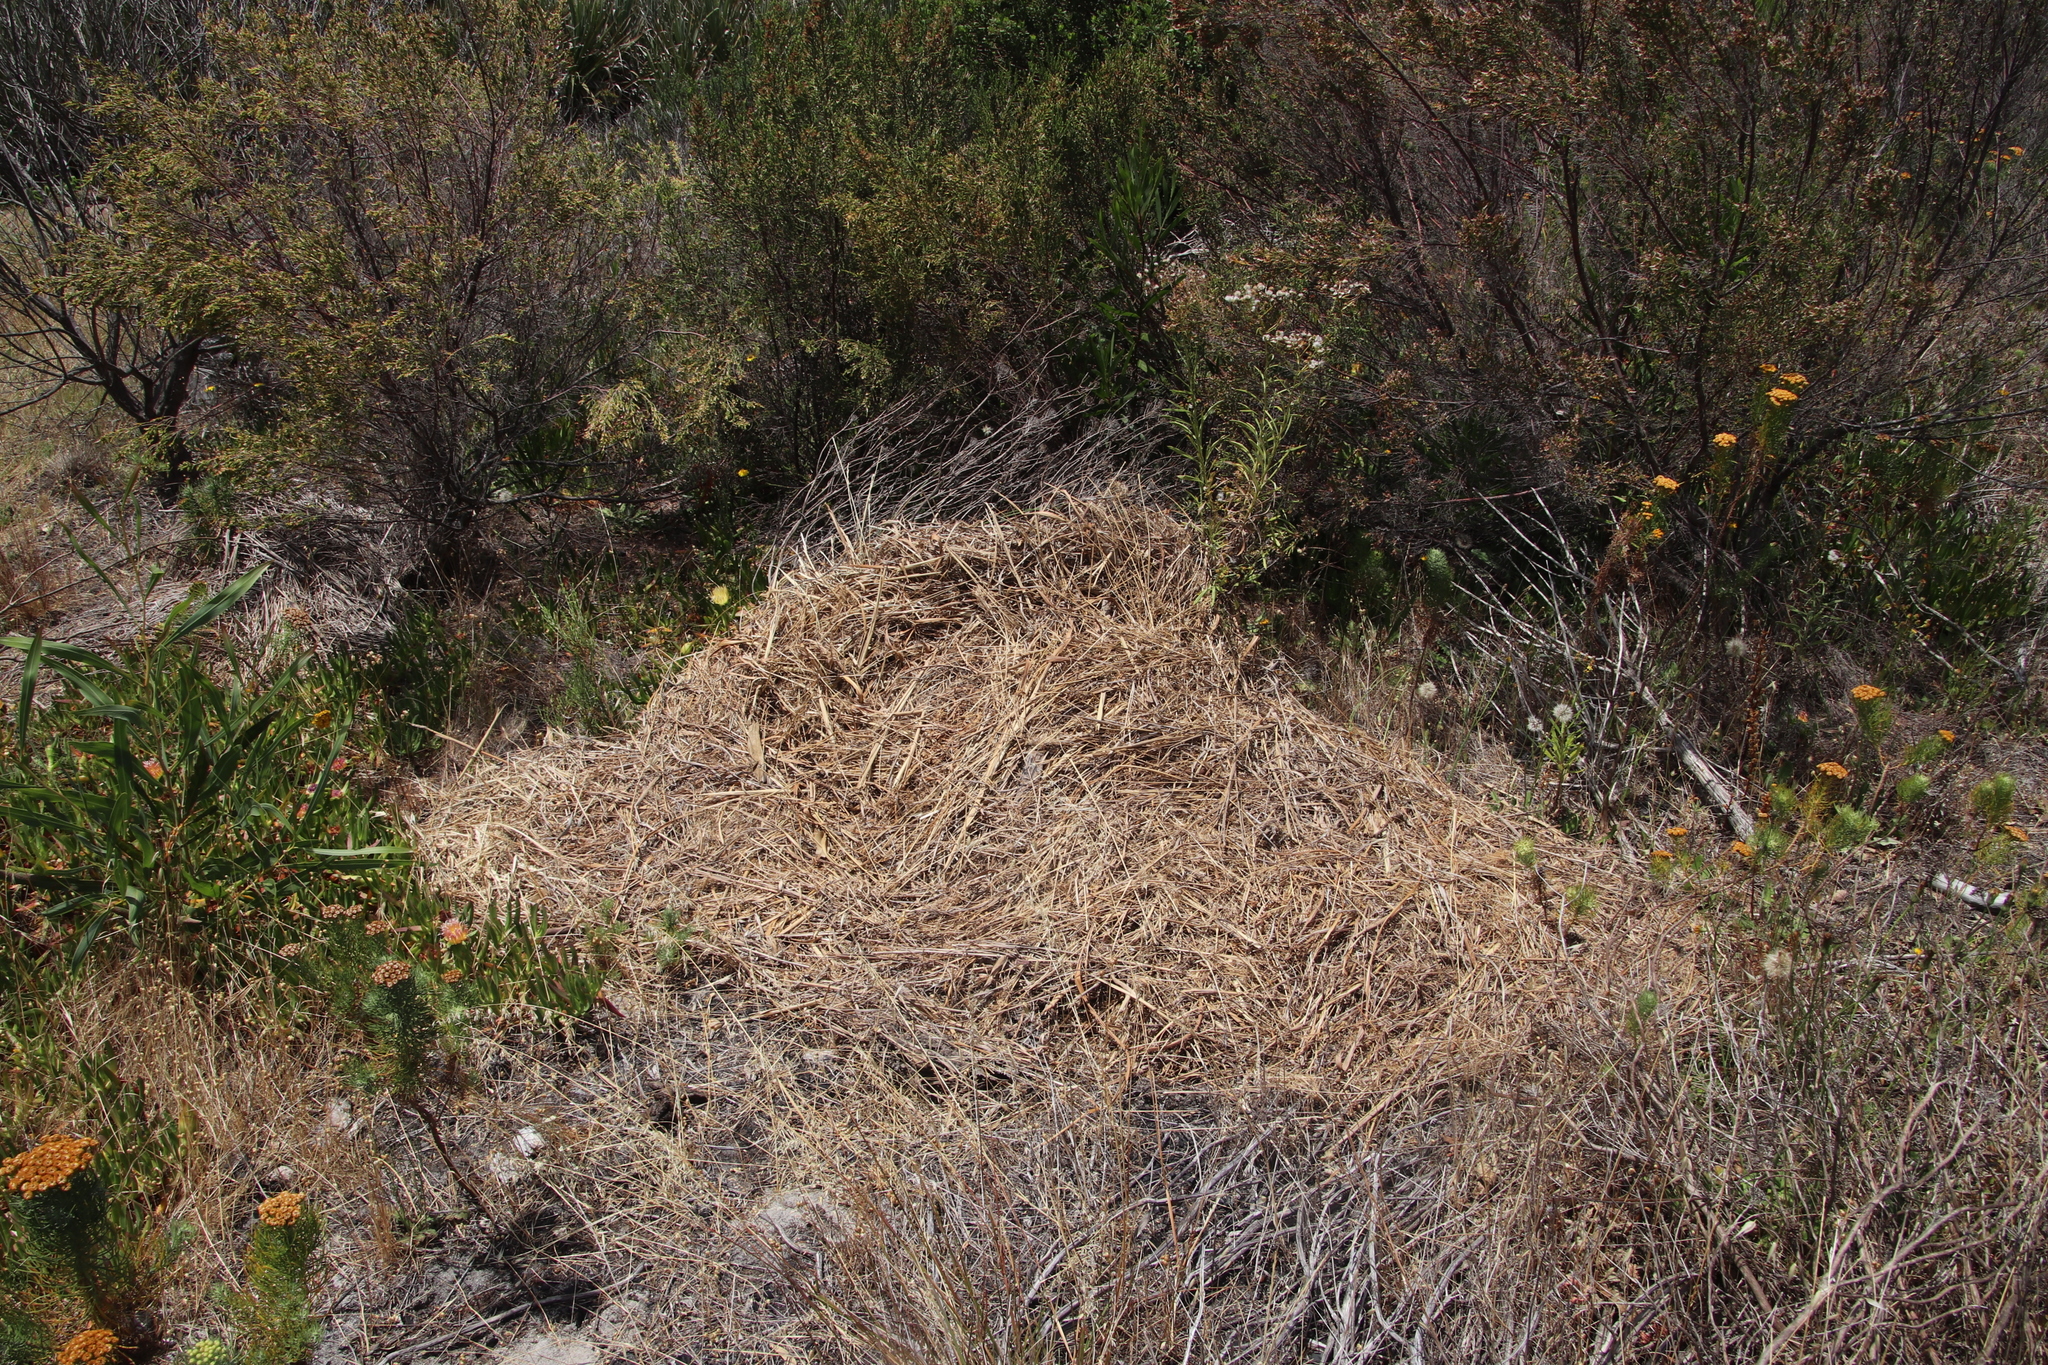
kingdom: Plantae
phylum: Tracheophyta
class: Liliopsida
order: Poales
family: Poaceae
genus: Cenchrus
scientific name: Cenchrus clandestinus
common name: Kikuyugrass
